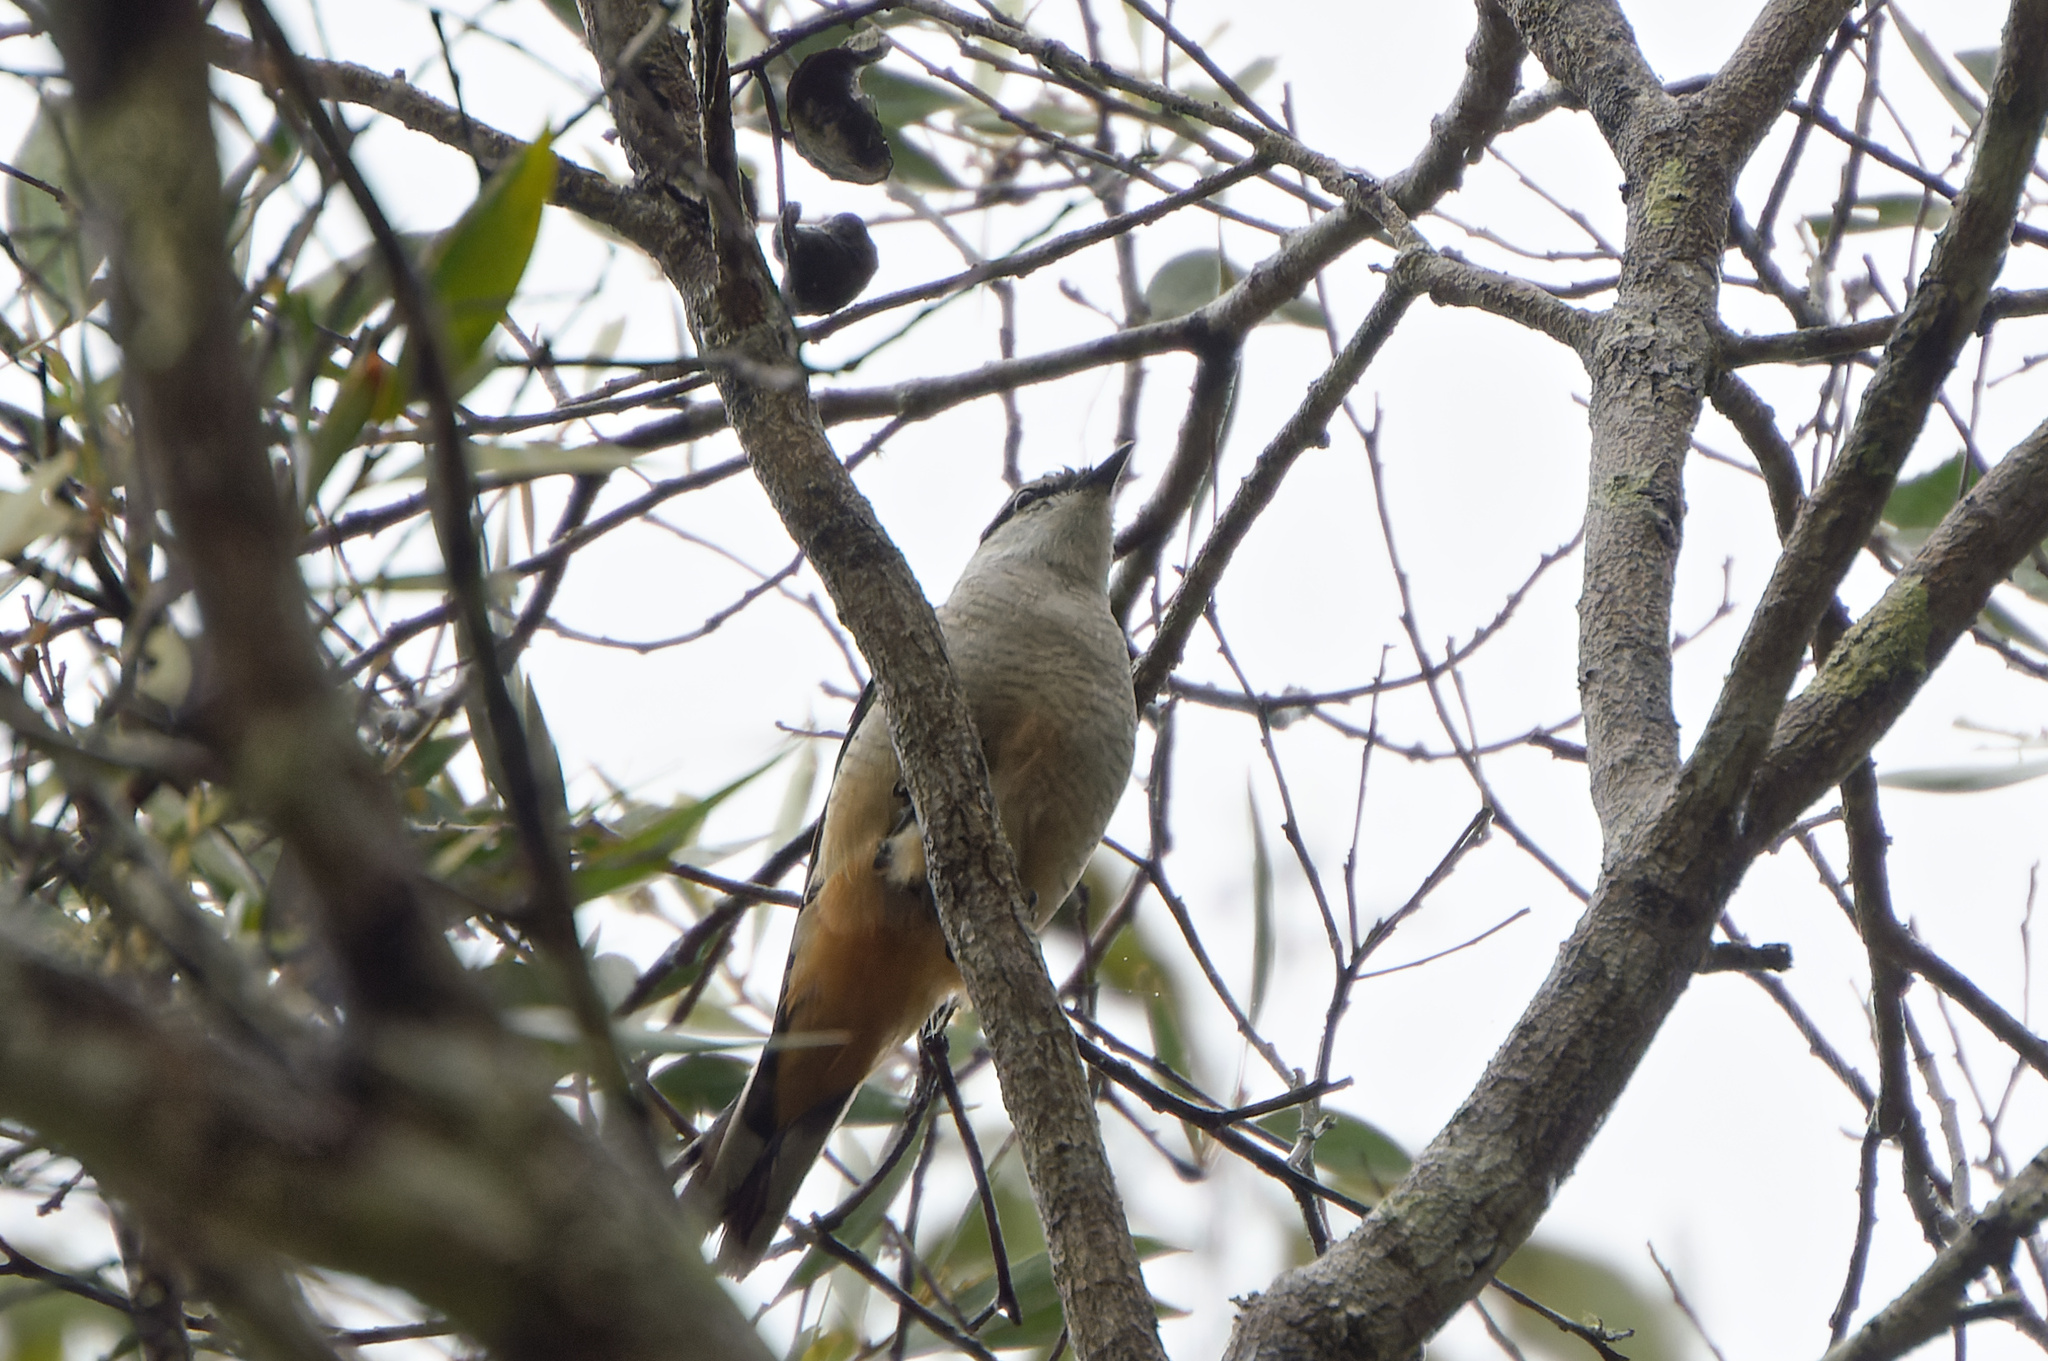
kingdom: Animalia
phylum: Chordata
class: Aves
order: Passeriformes
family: Campephagidae
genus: Lalage
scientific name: Lalage leucomela
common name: Varied triller
